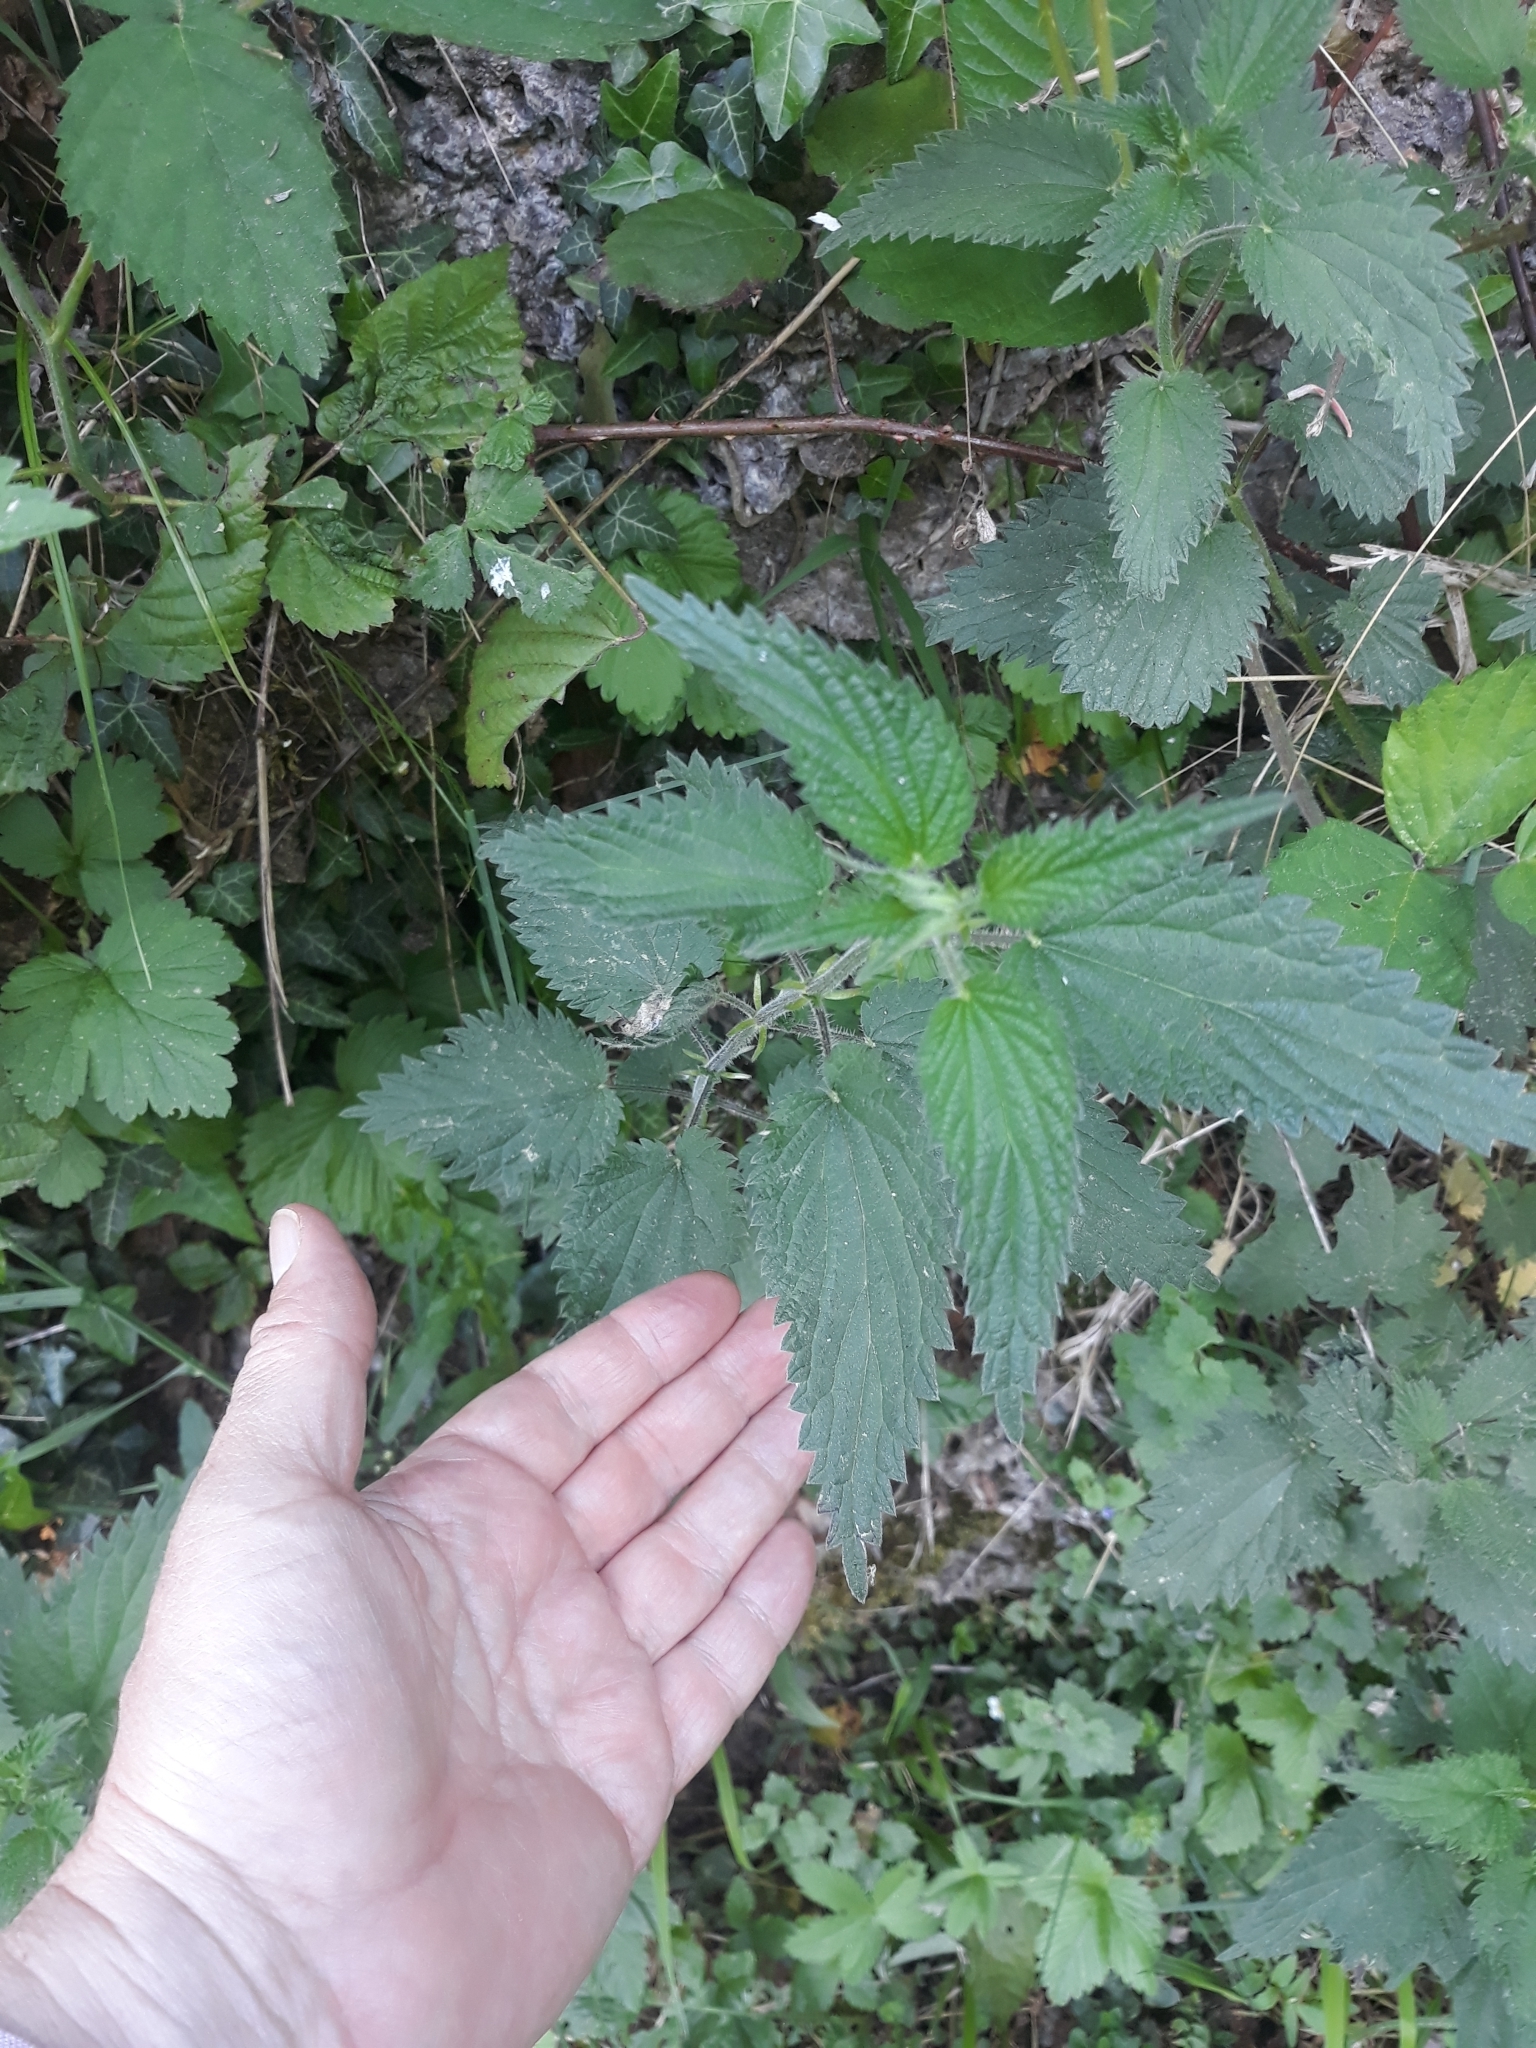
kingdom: Plantae
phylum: Tracheophyta
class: Magnoliopsida
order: Rosales
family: Urticaceae
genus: Urtica
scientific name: Urtica dioica
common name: Common nettle
